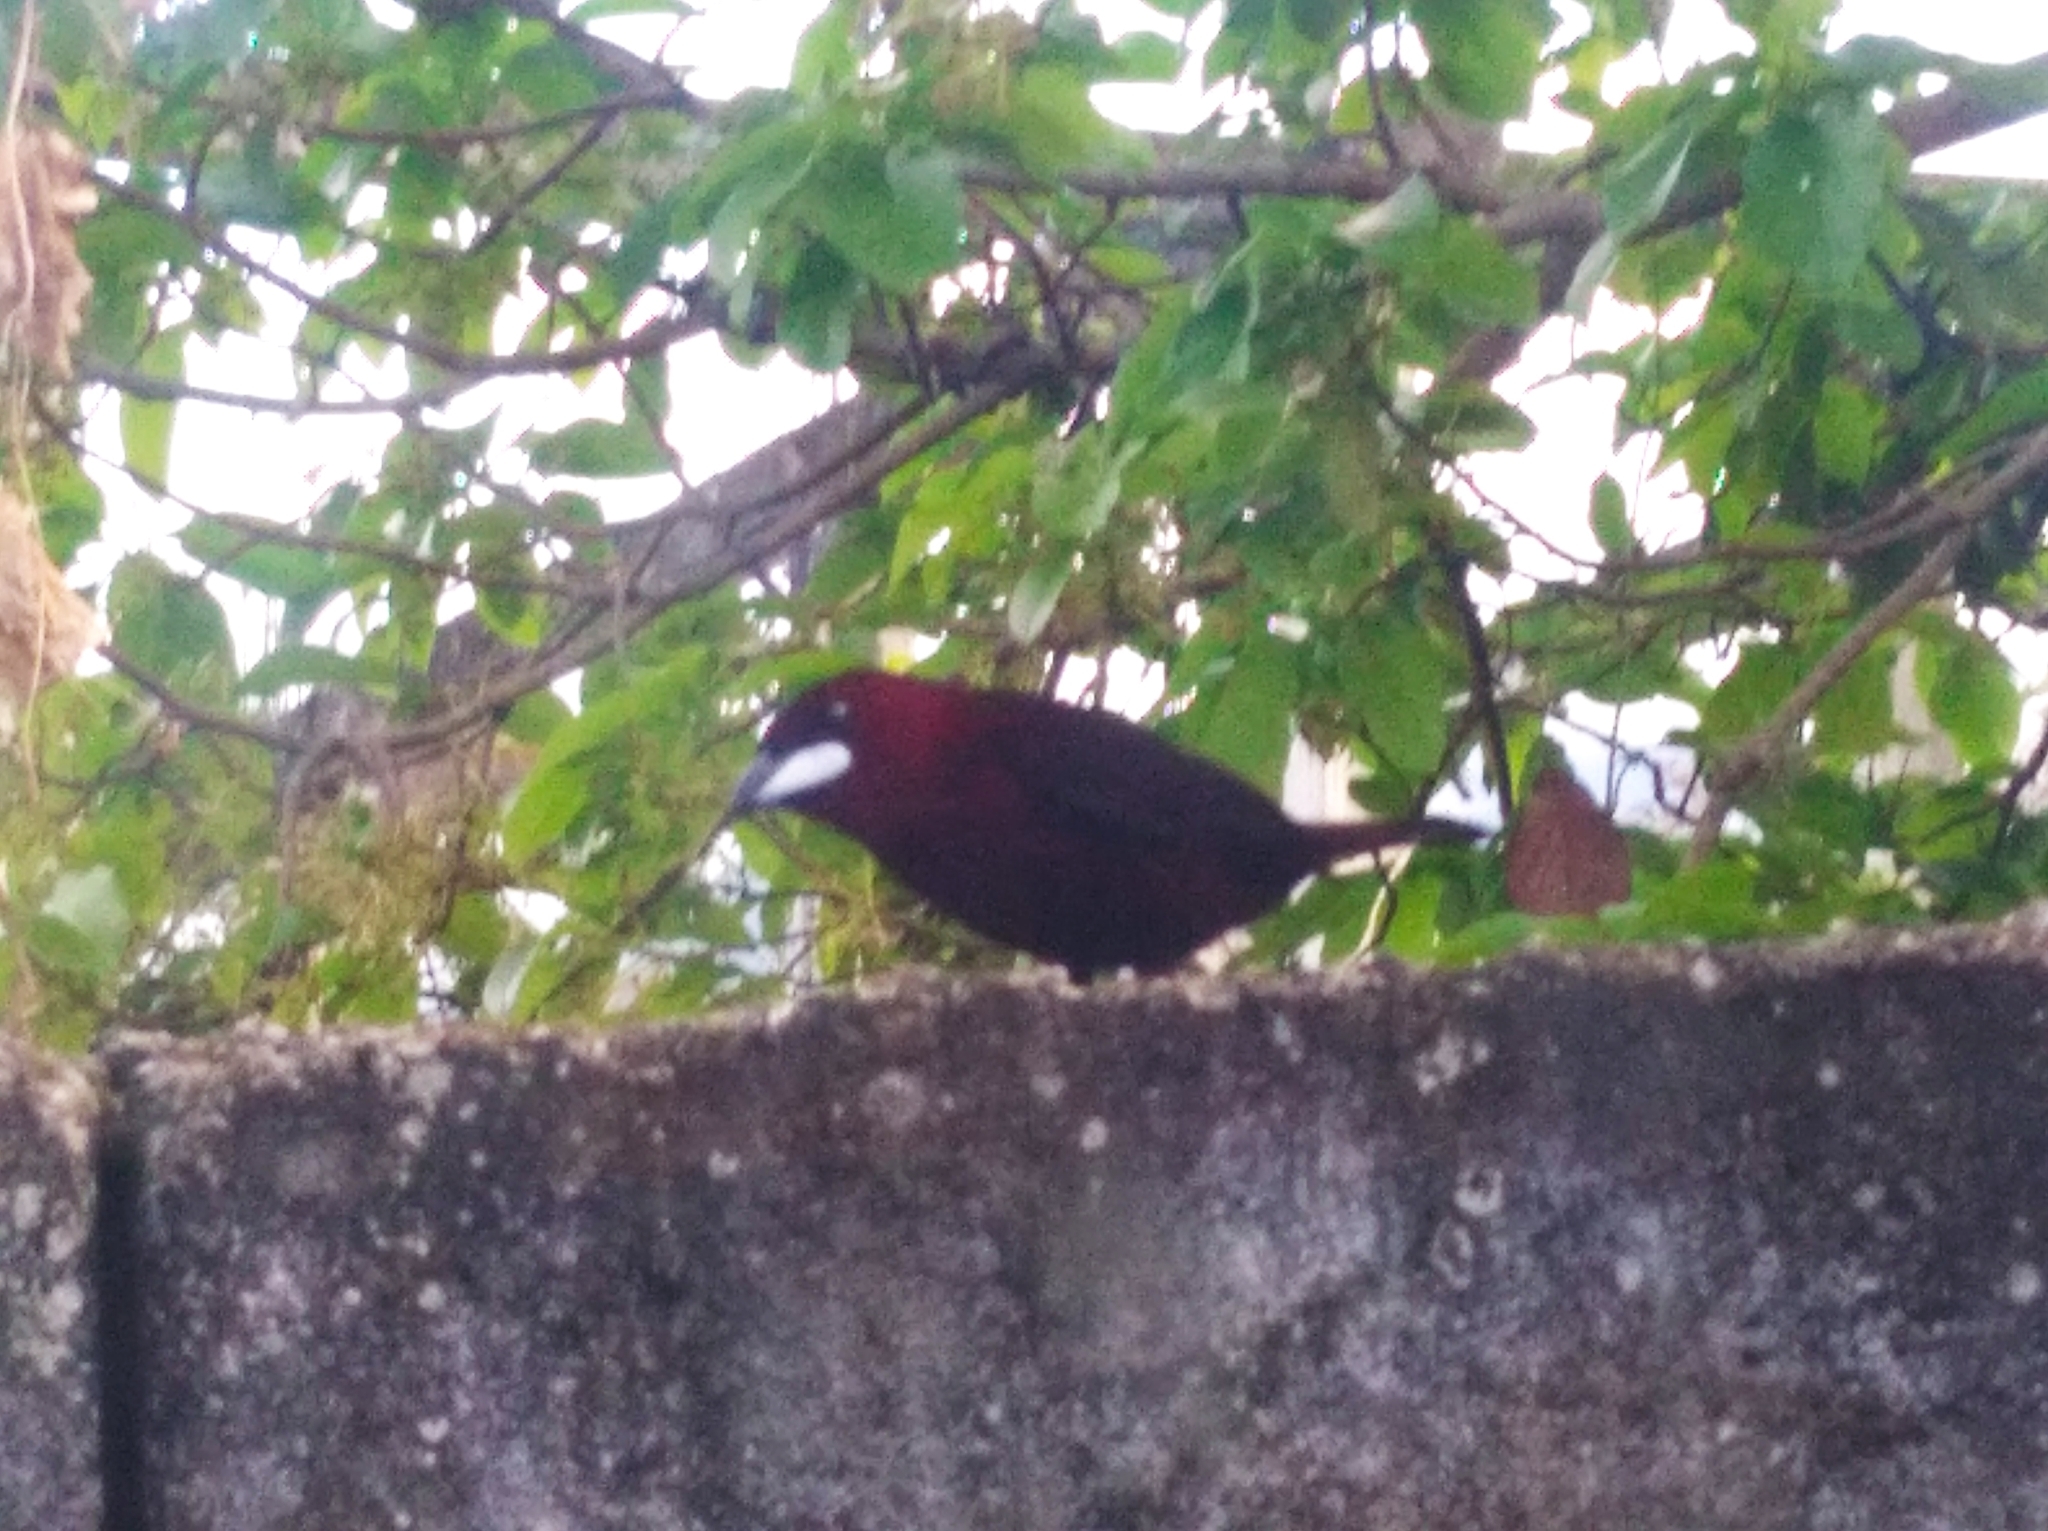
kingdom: Animalia
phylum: Chordata
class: Aves
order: Passeriformes
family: Thraupidae
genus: Ramphocelus
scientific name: Ramphocelus carbo
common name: Silver-beaked tanager
